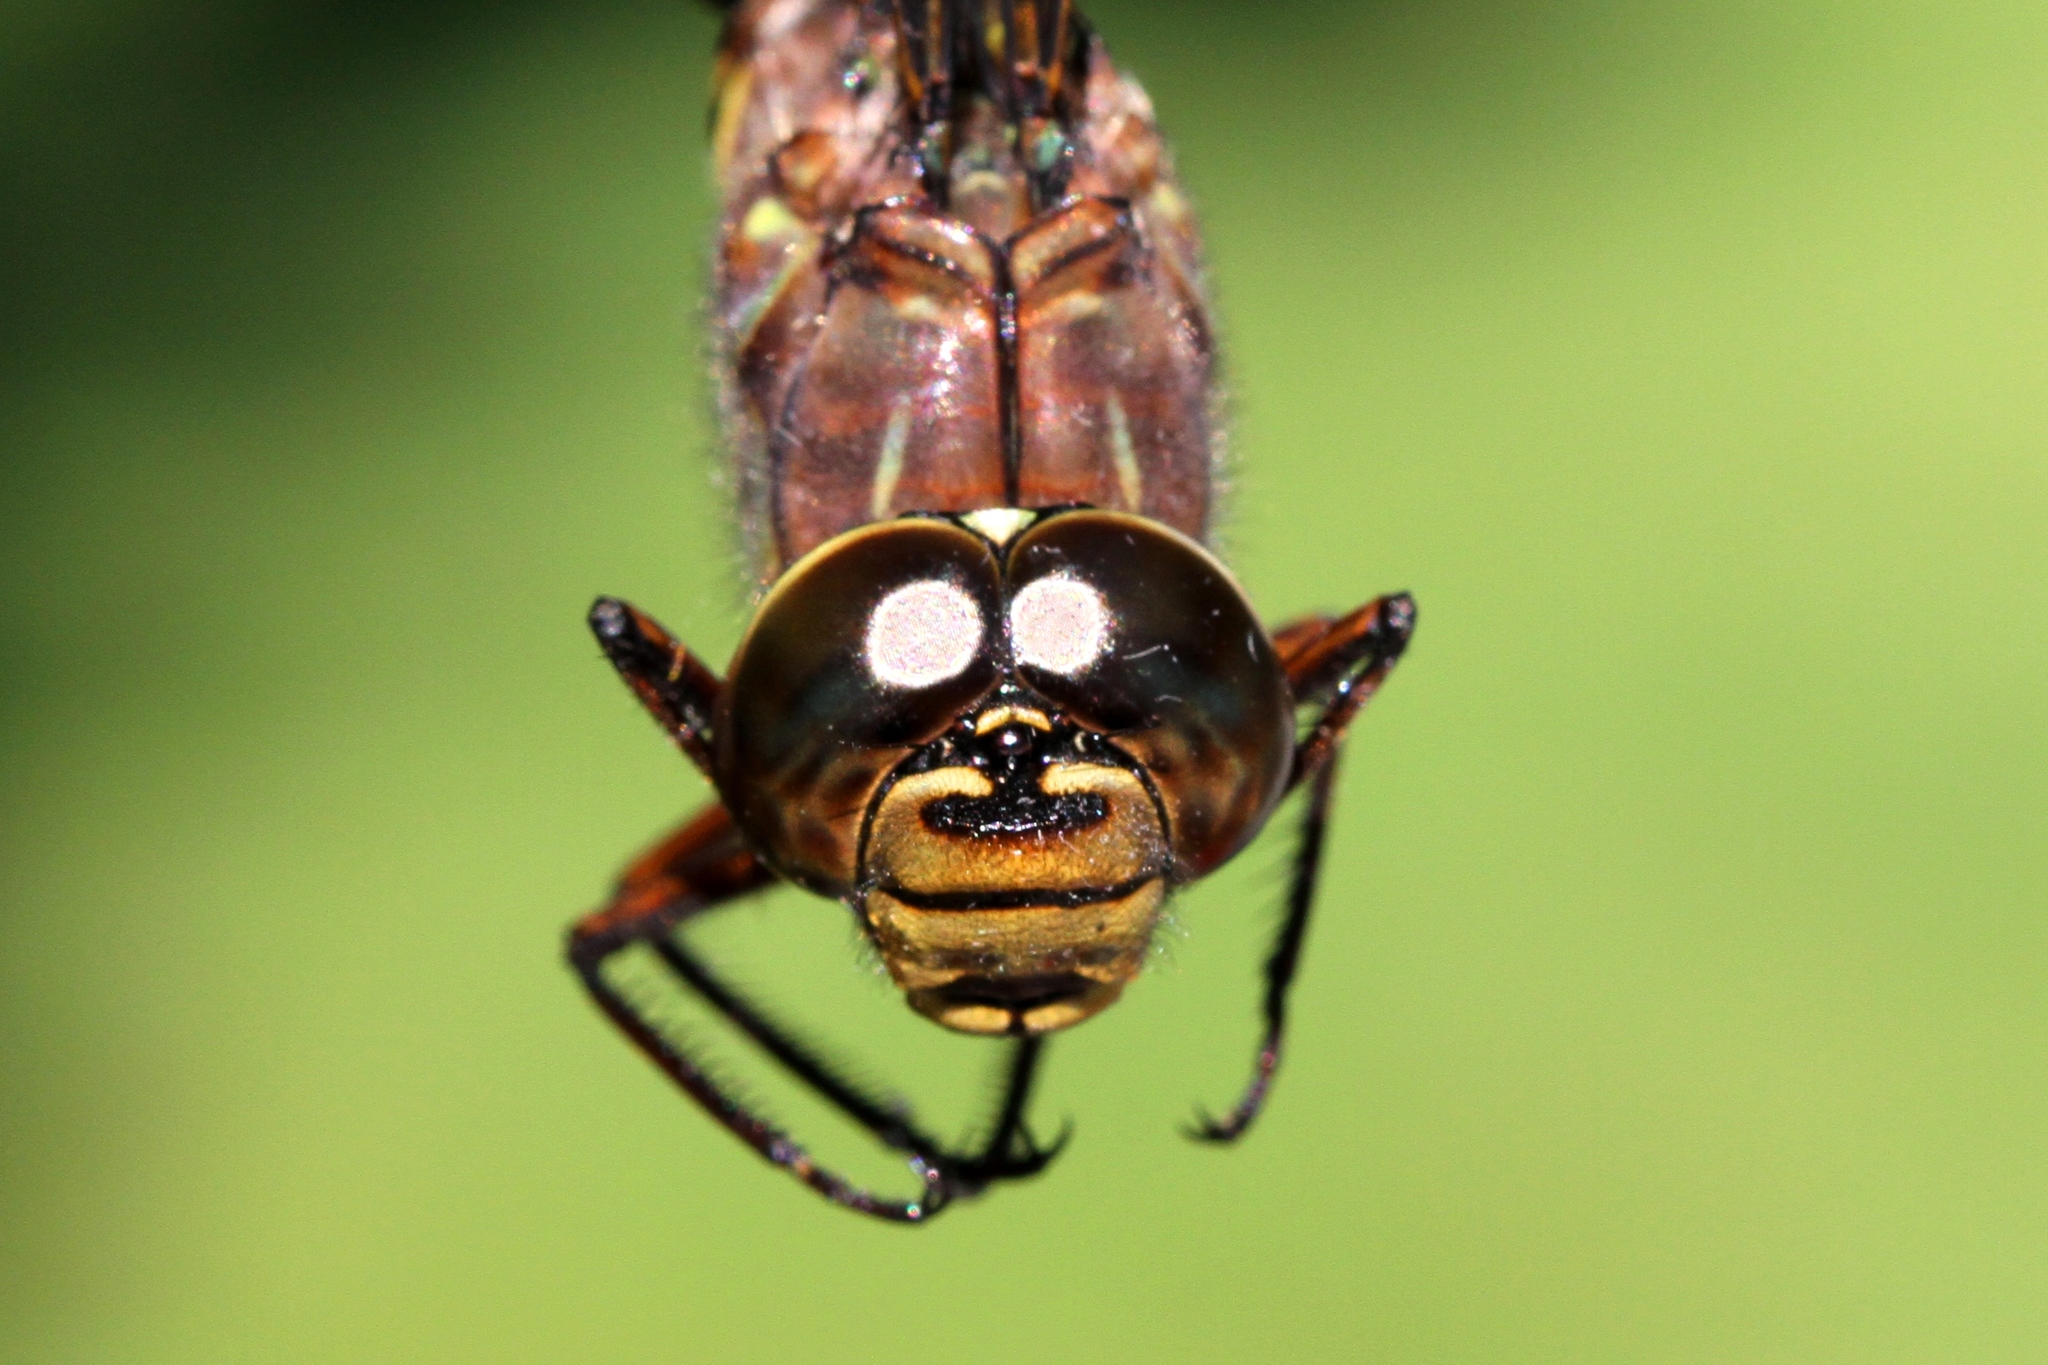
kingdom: Animalia
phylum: Arthropoda
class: Insecta
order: Odonata
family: Aeshnidae
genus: Aeshna
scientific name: Aeshna eremita
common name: Lake darner
